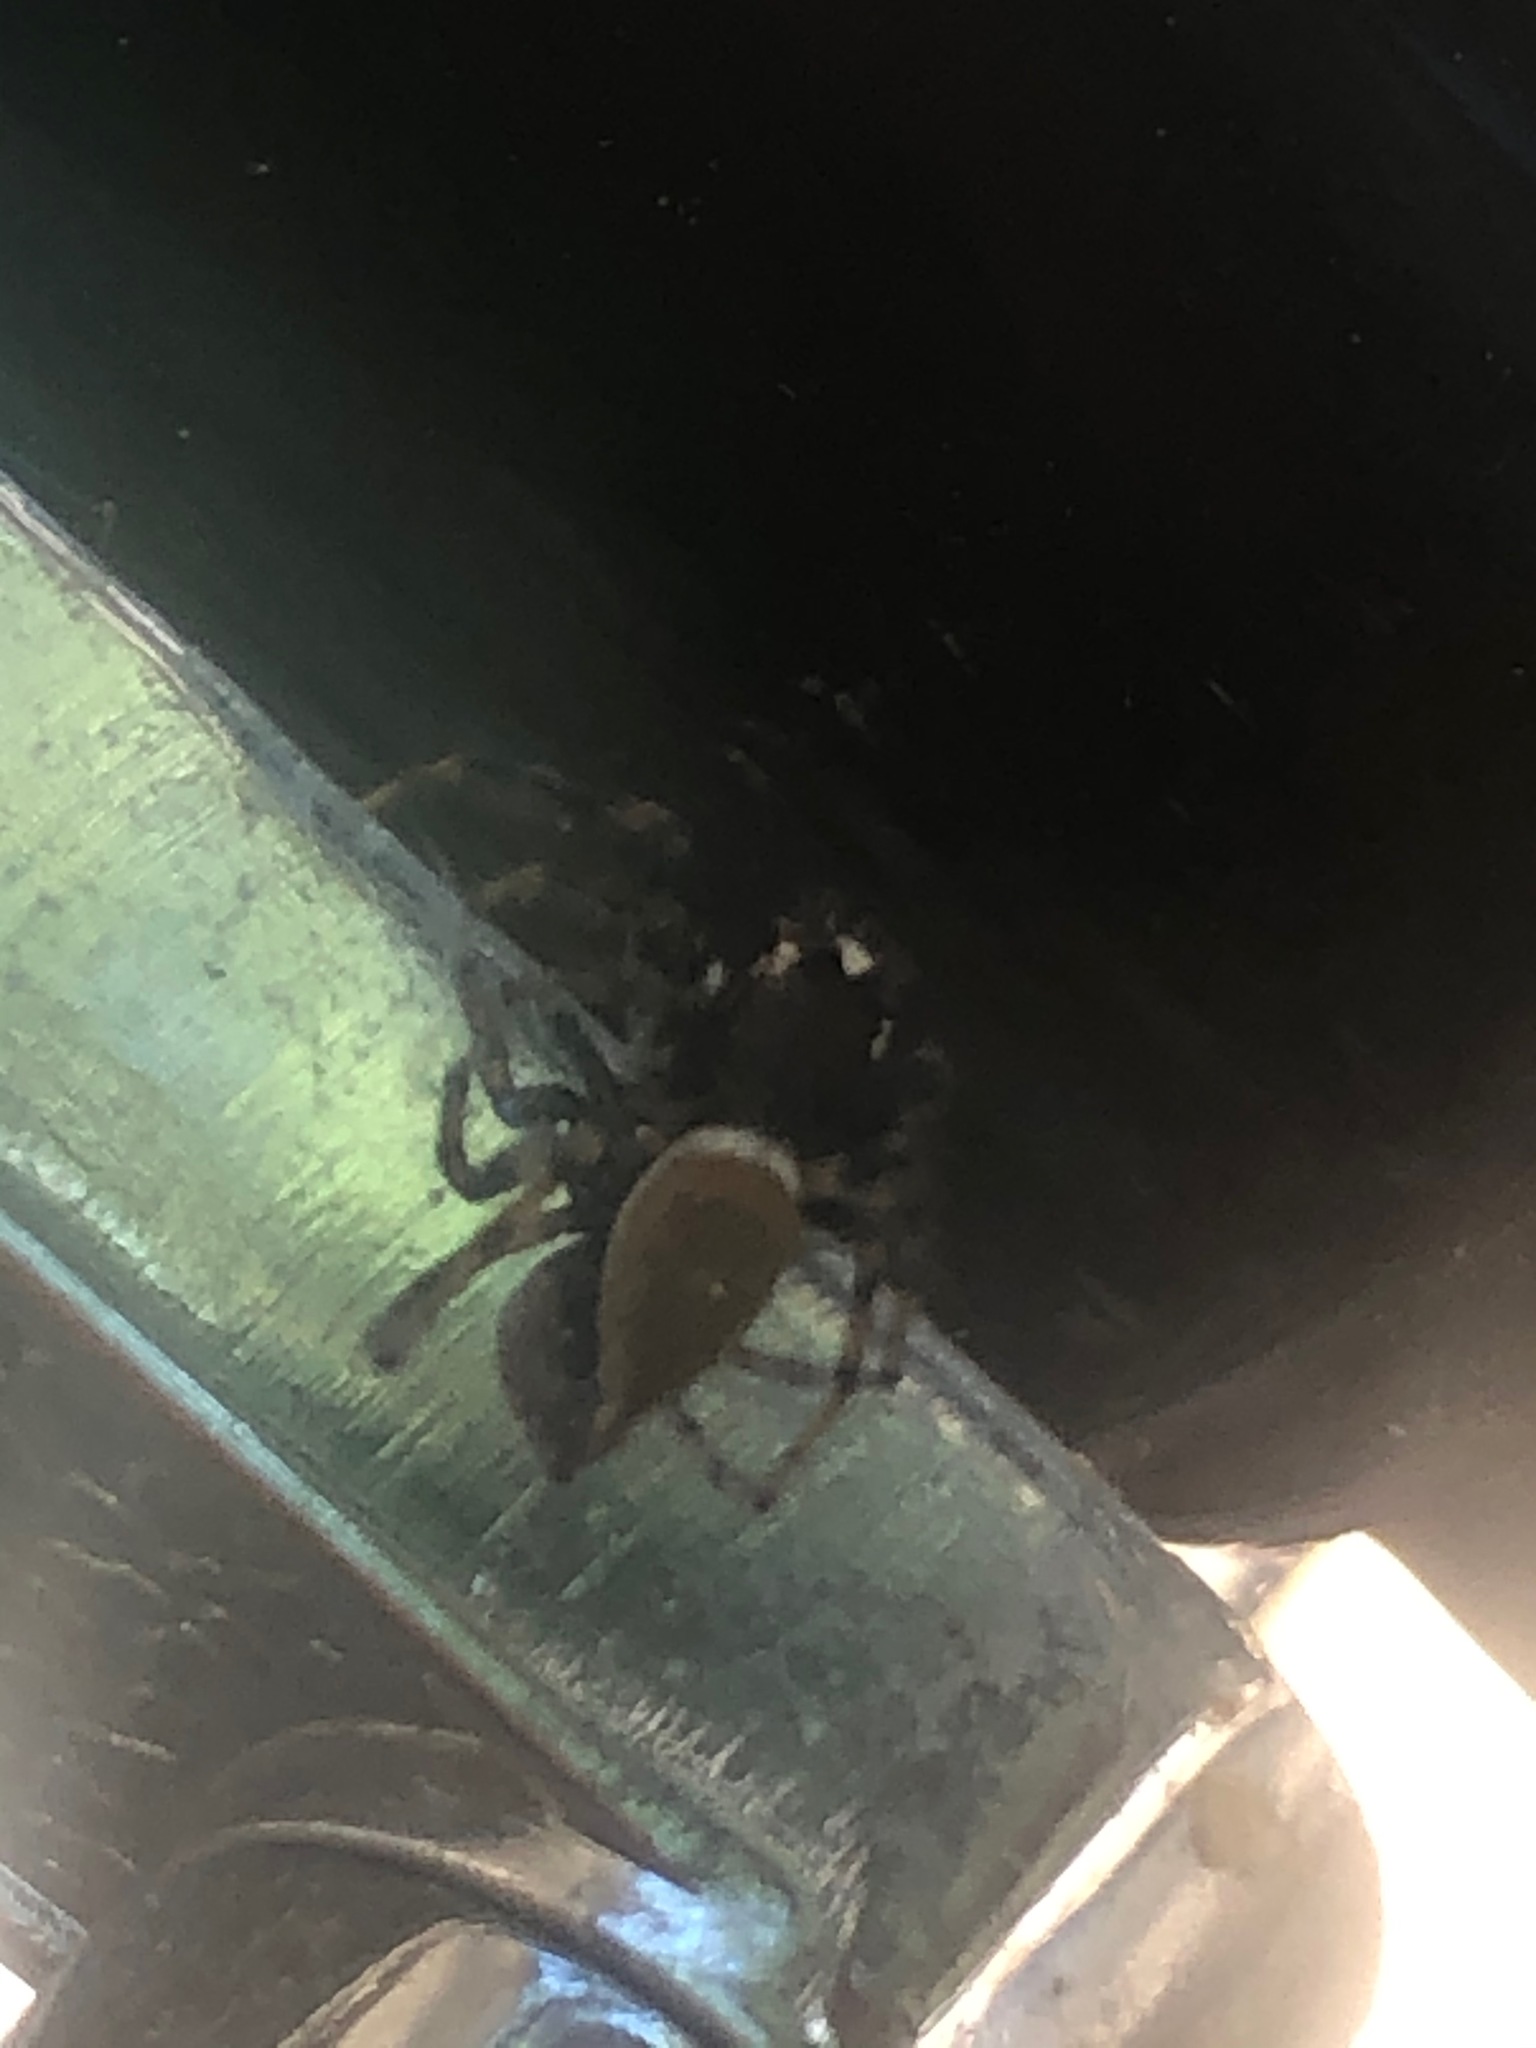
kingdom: Animalia
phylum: Arthropoda
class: Arachnida
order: Araneae
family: Salticidae
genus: Colonus
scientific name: Colonus hesperus
